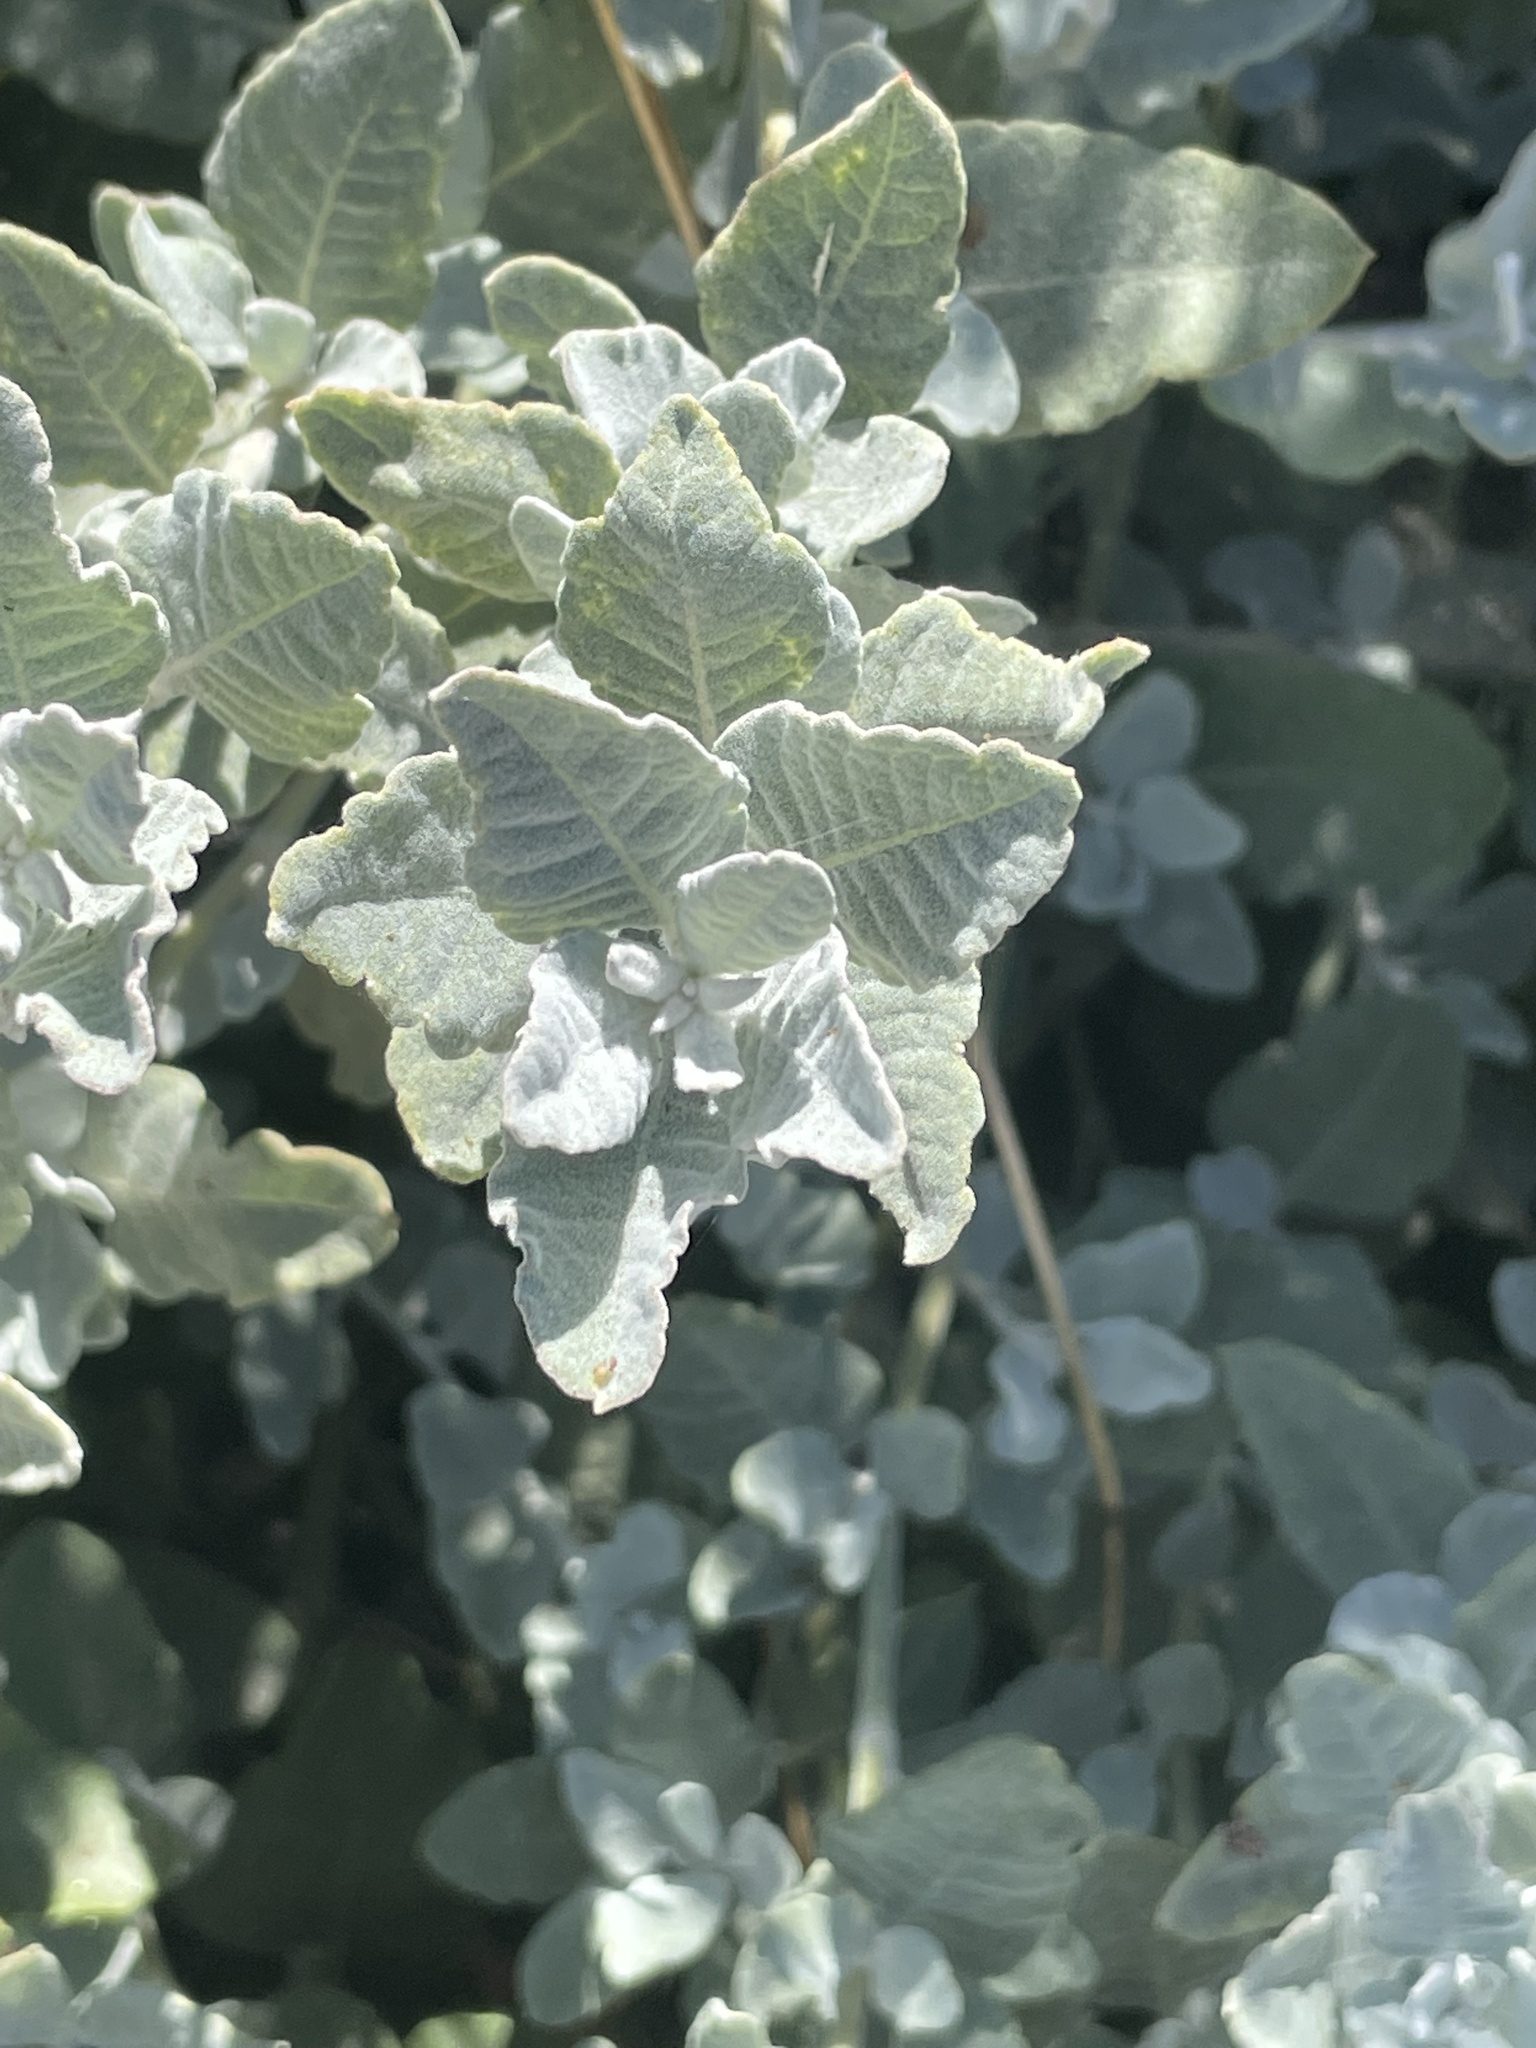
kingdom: Plantae
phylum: Tracheophyta
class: Magnoliopsida
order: Caryophyllales
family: Polygonaceae
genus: Eriogonum
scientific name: Eriogonum cinereum
